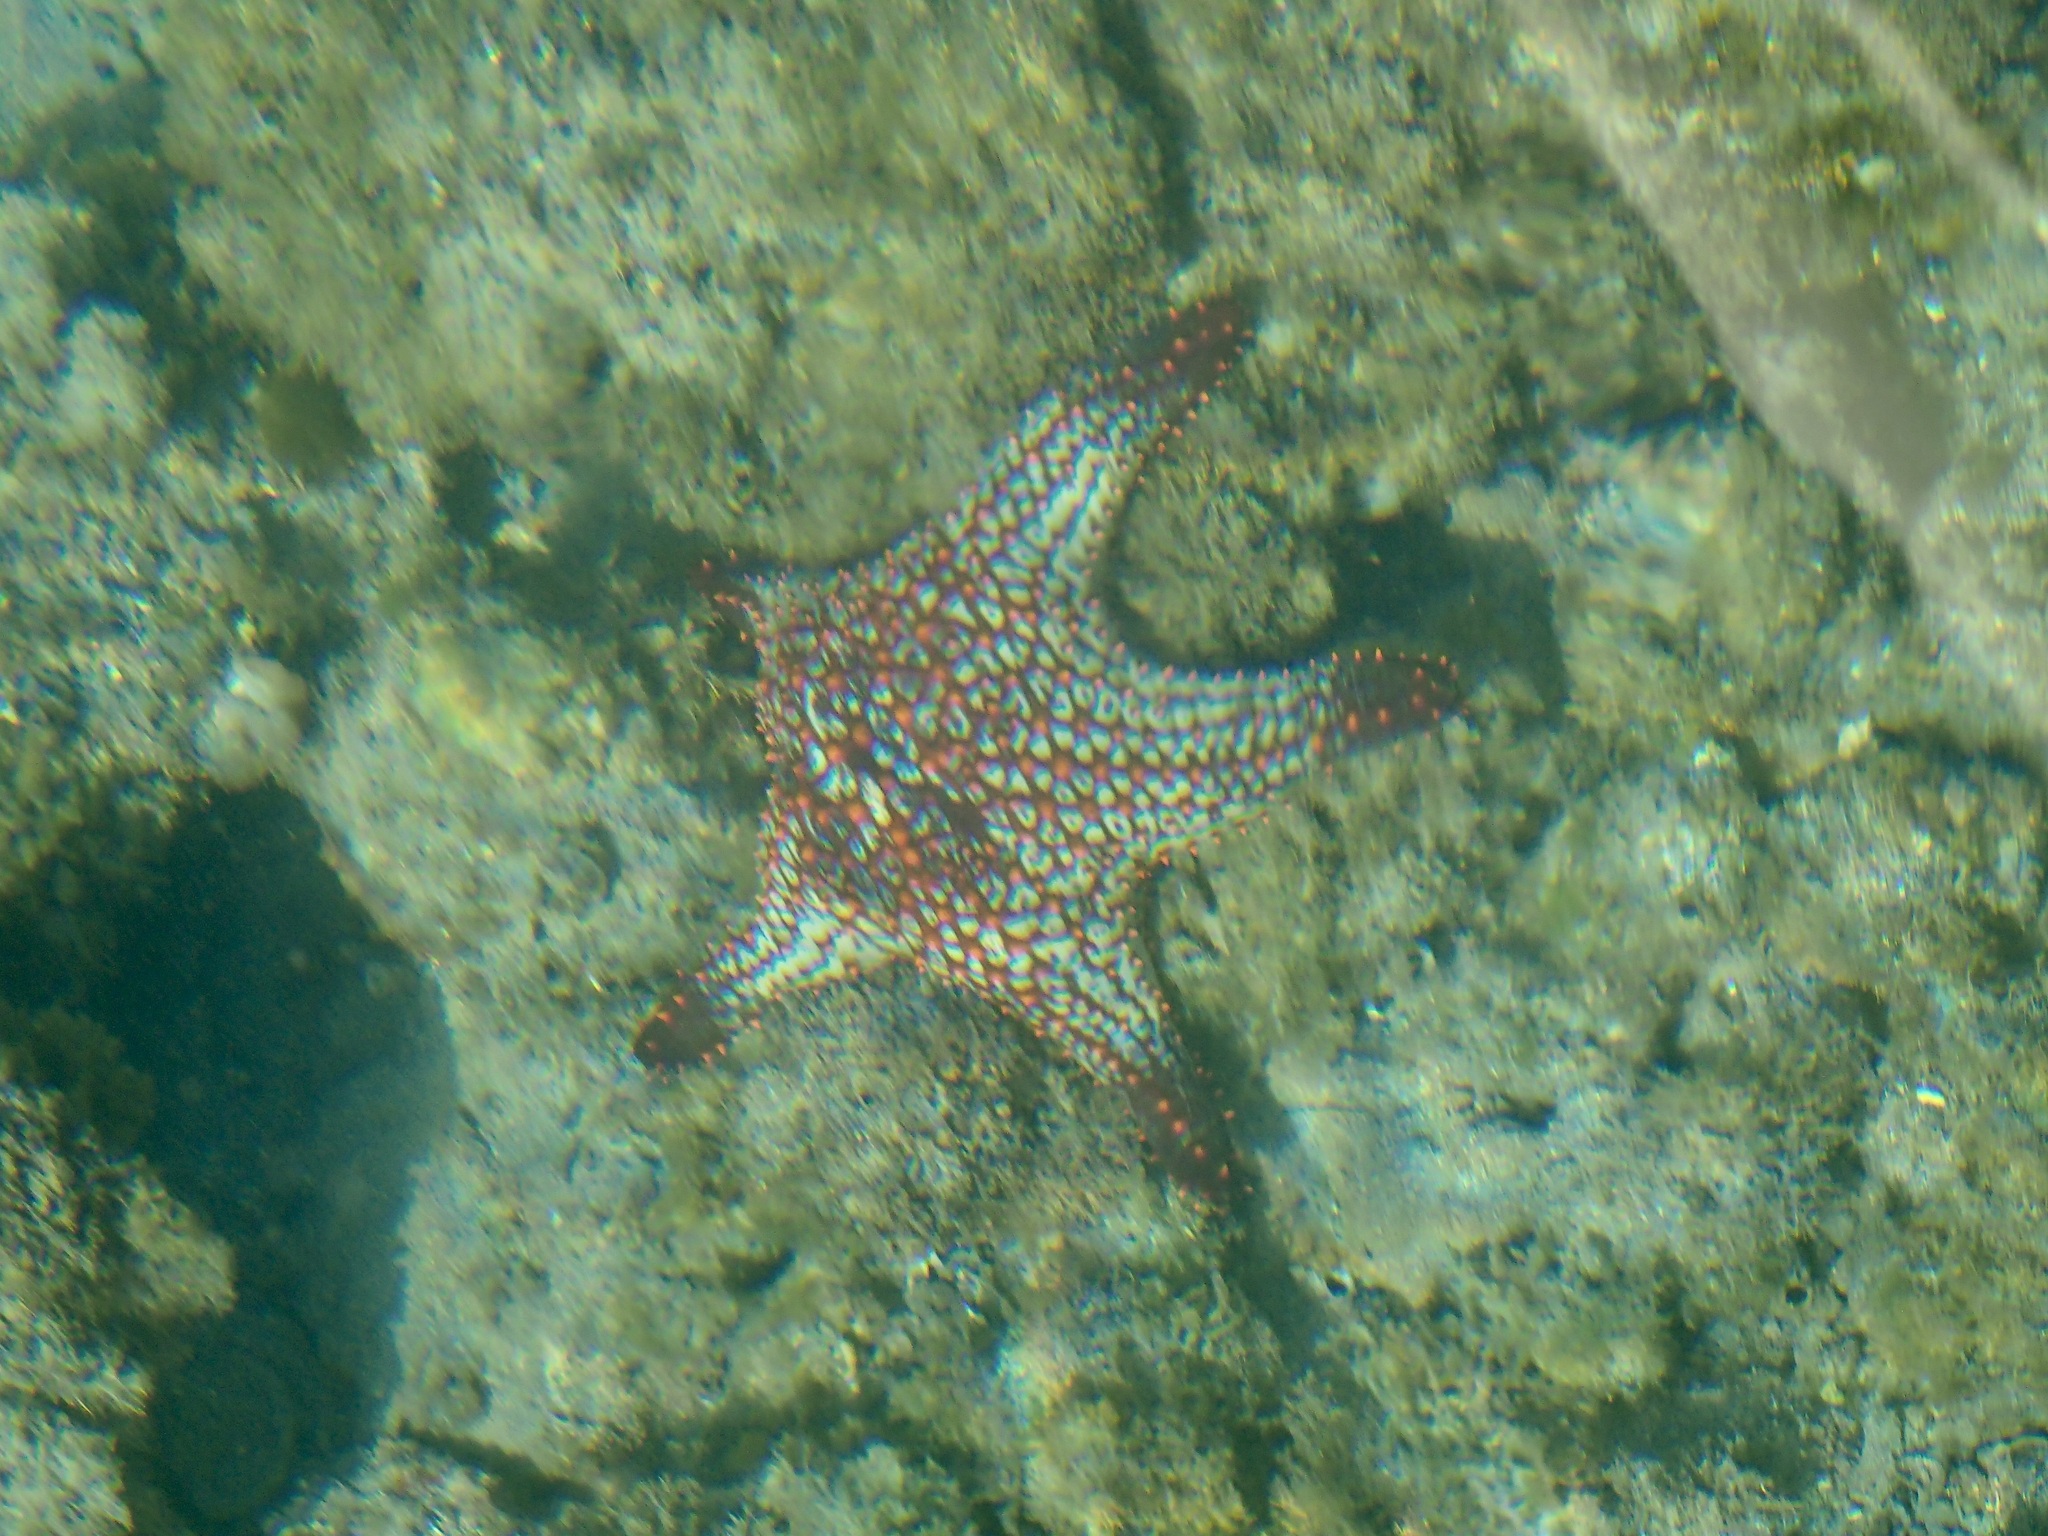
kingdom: Animalia
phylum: Echinodermata
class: Asteroidea
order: Valvatida
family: Oreasteridae
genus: Pentaceraster
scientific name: Pentaceraster cumingi
